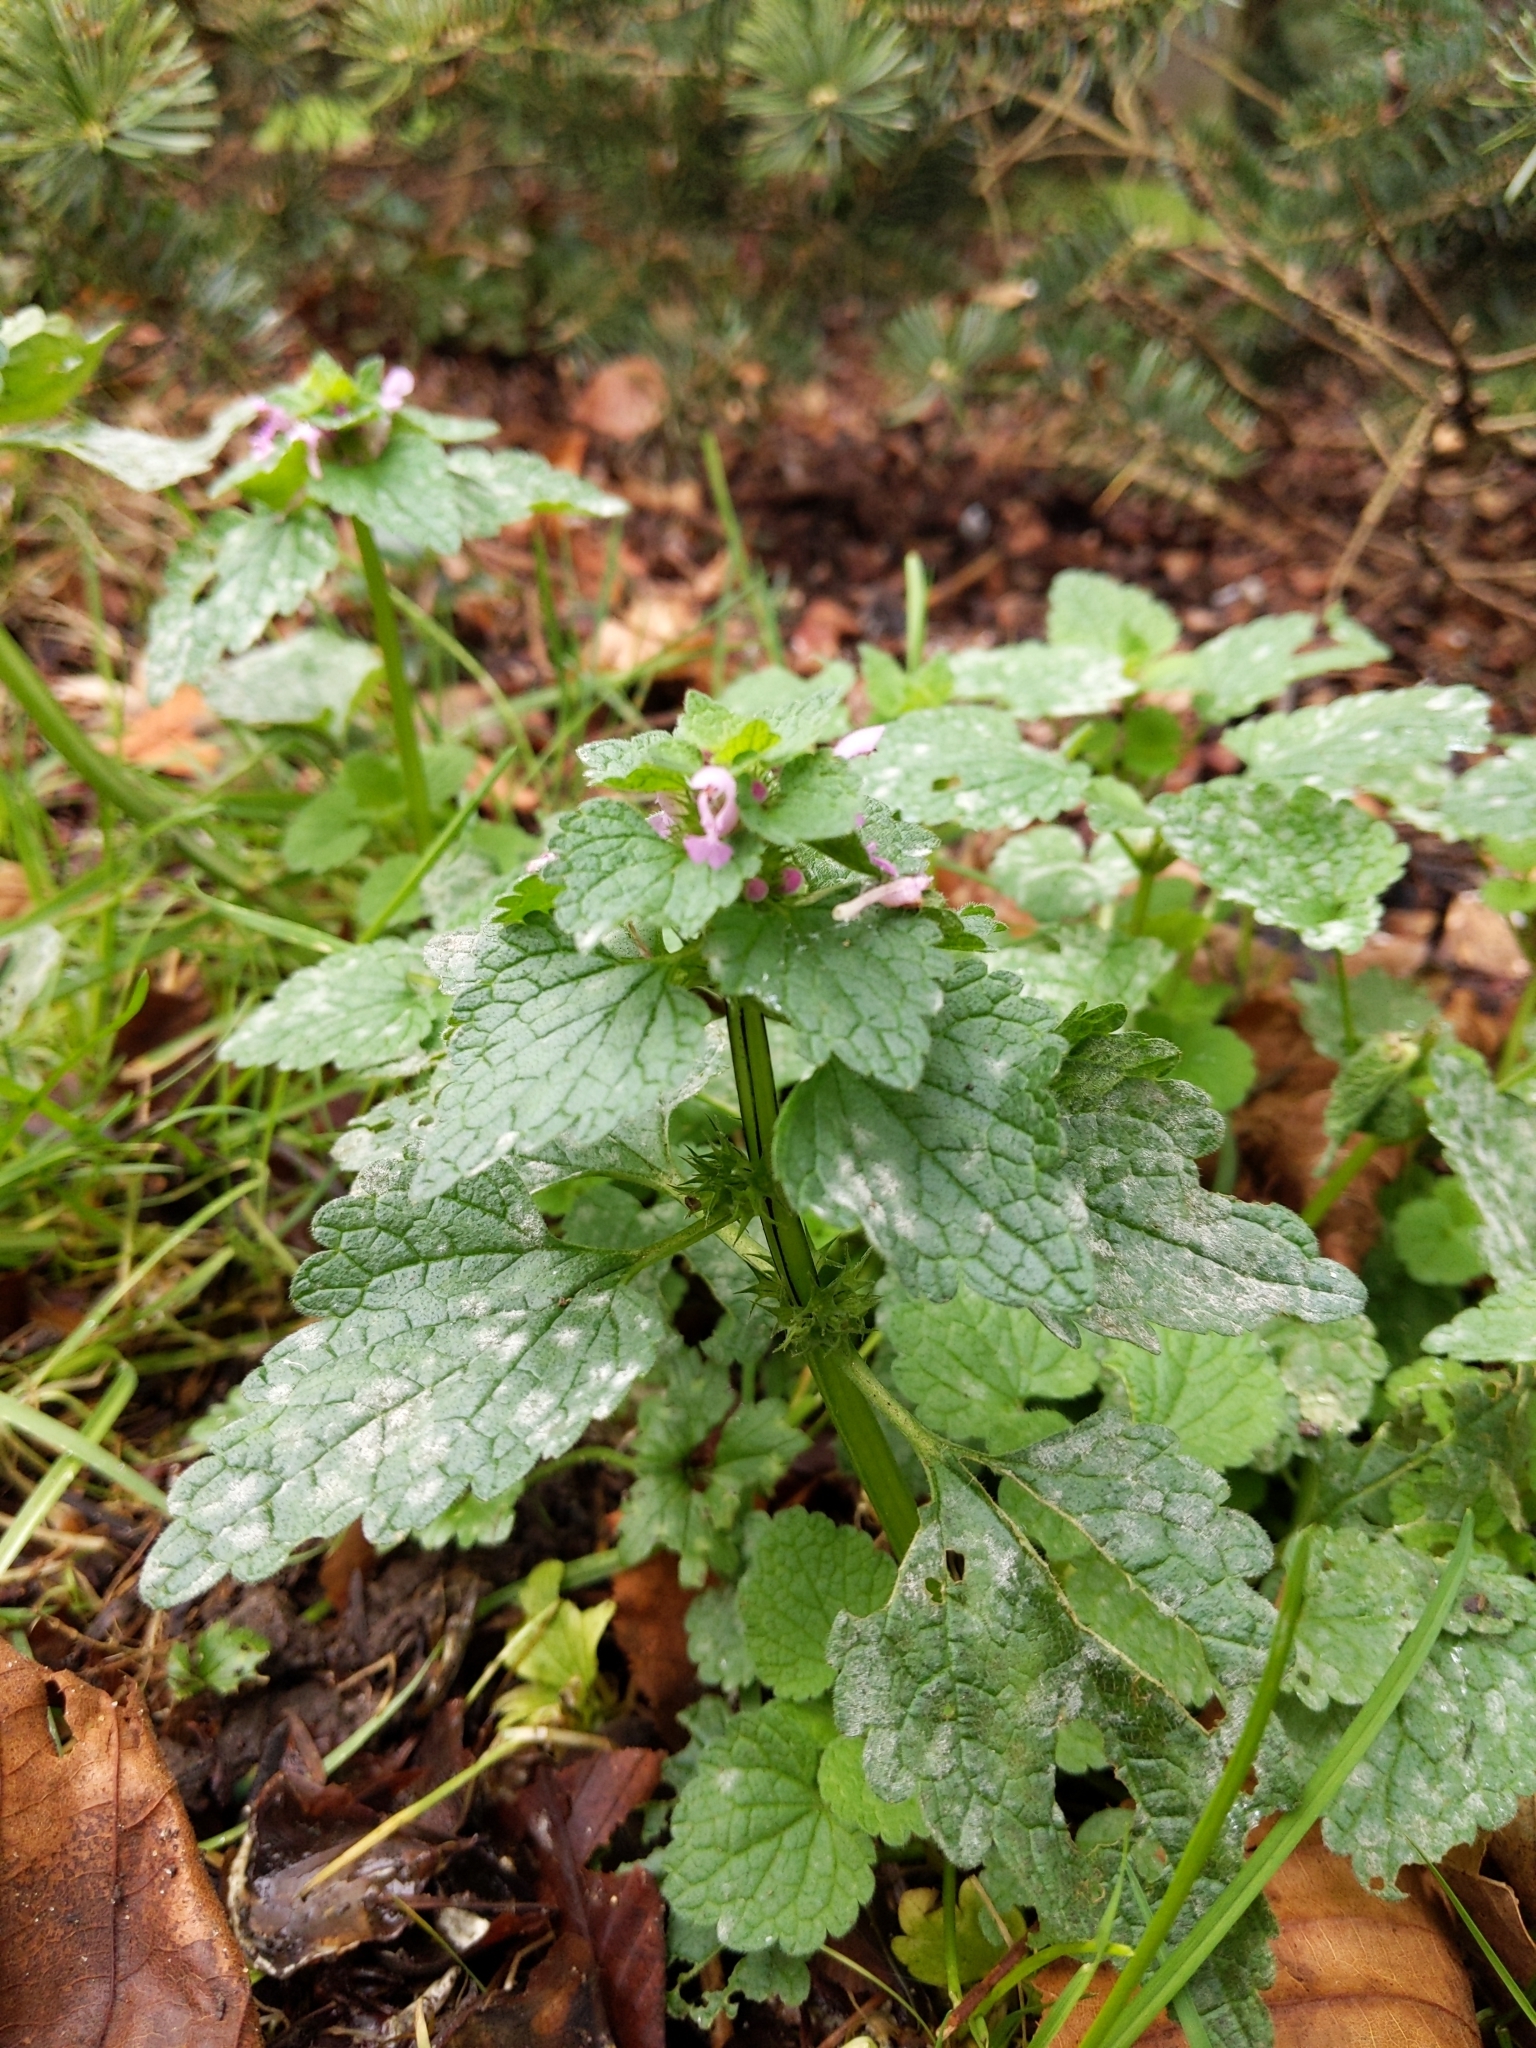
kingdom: Plantae
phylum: Tracheophyta
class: Magnoliopsida
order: Lamiales
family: Lamiaceae
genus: Lamium
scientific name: Lamium purpureum
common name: Red dead-nettle
